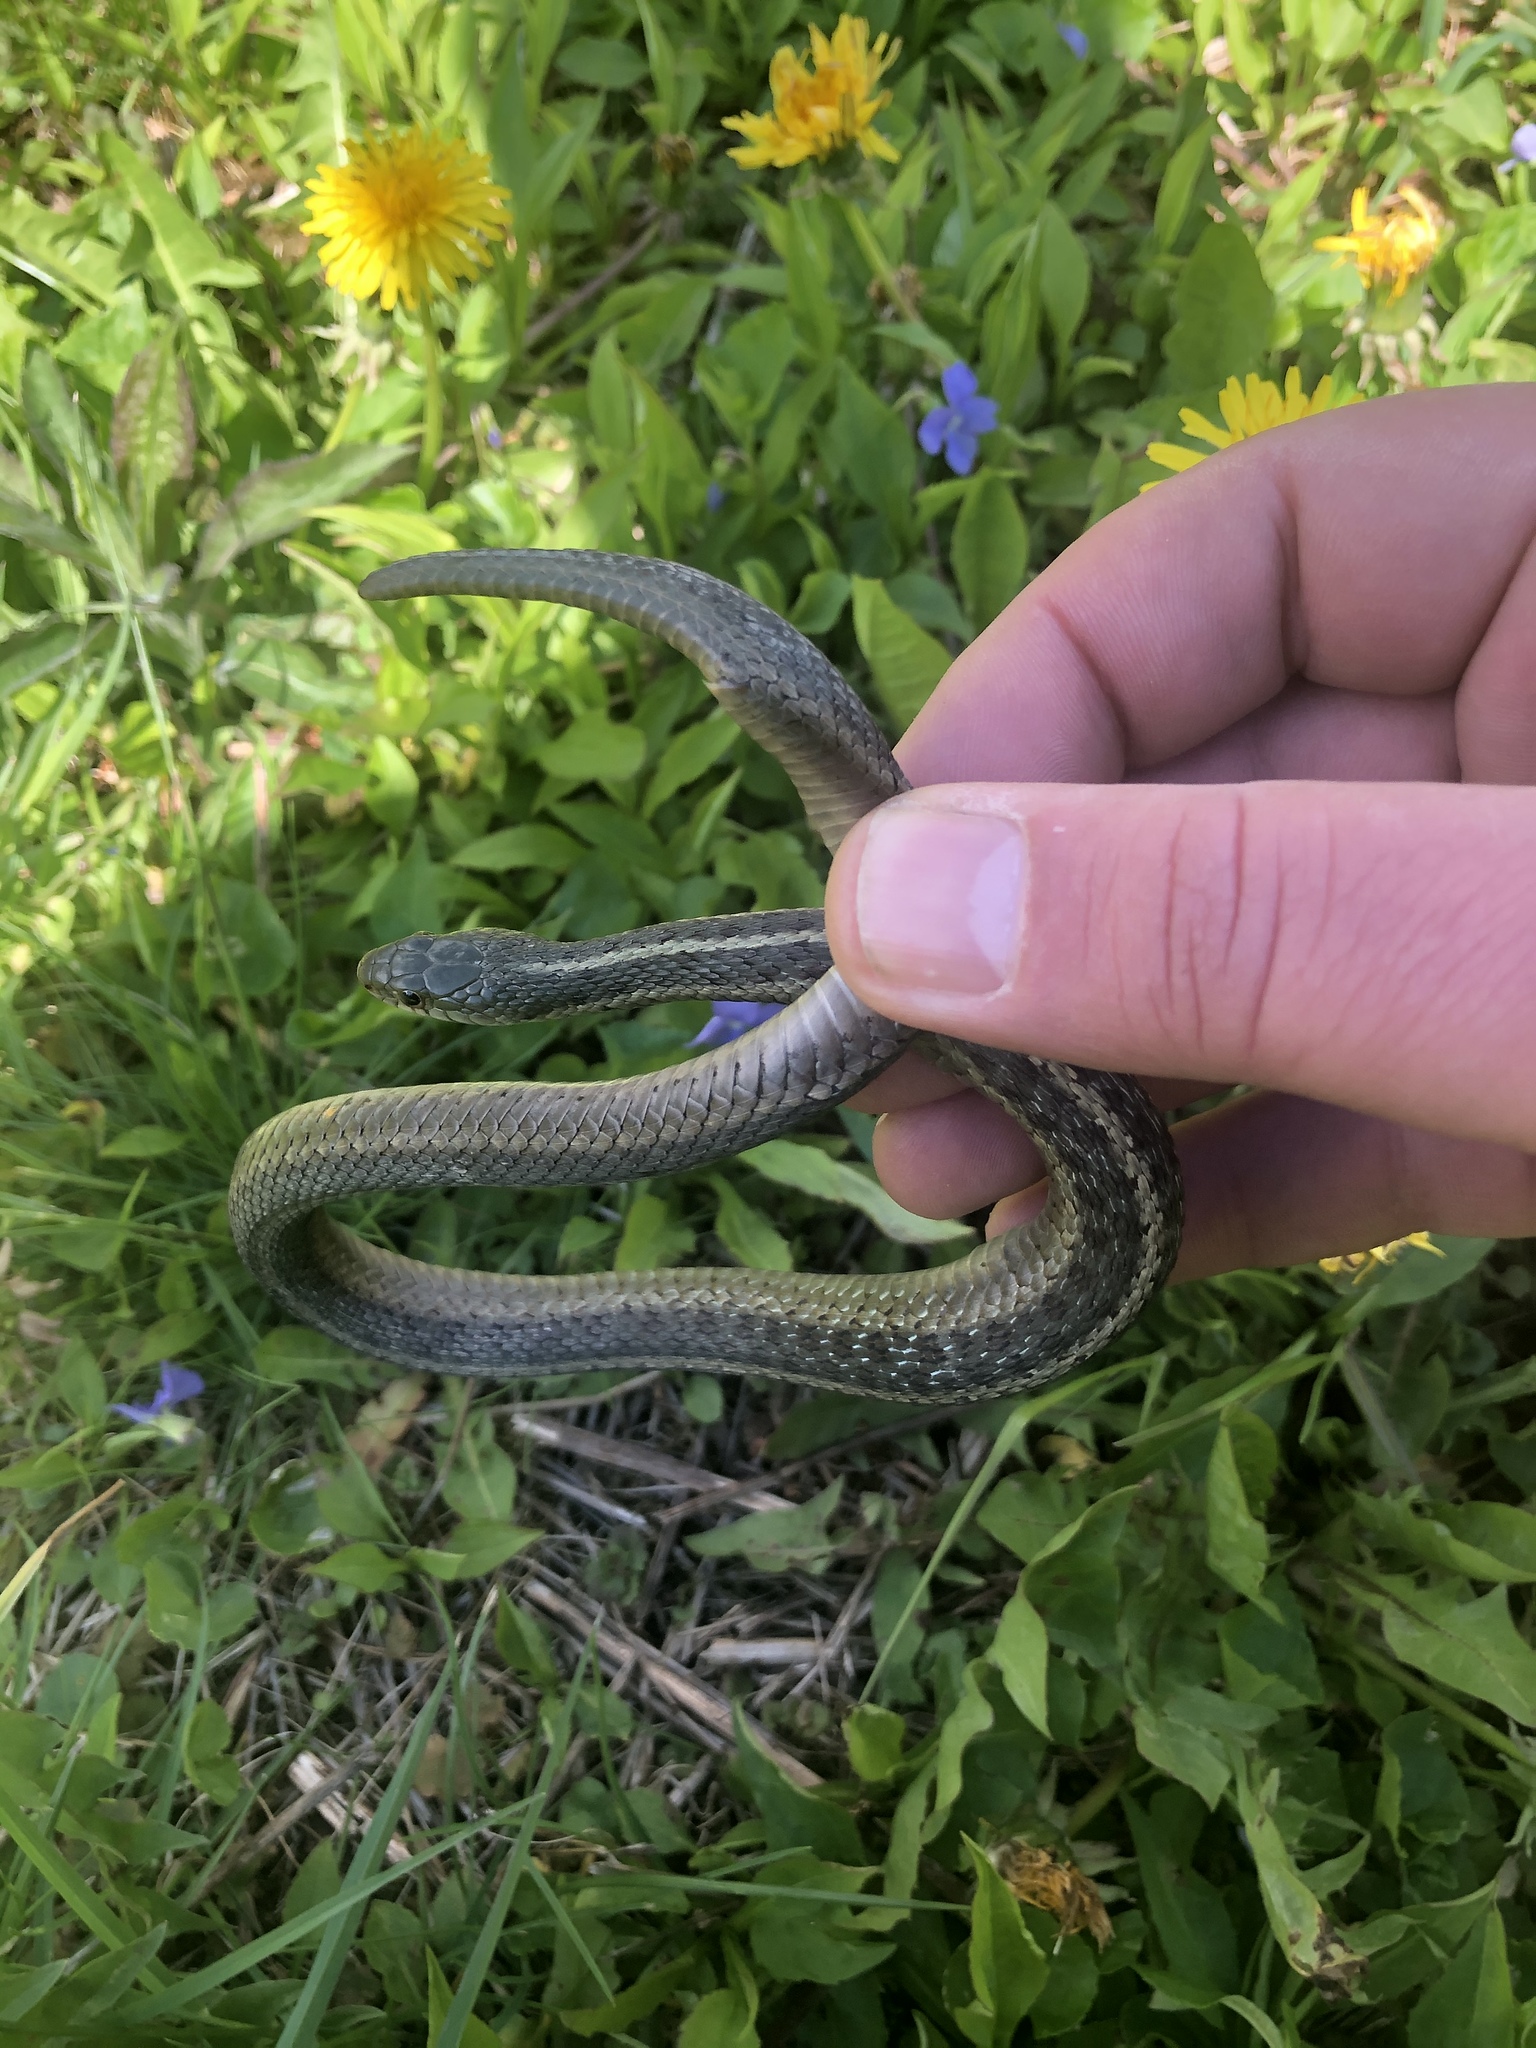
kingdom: Animalia
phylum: Chordata
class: Squamata
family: Colubridae
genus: Thamnophis
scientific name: Thamnophis sirtalis
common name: Common garter snake
